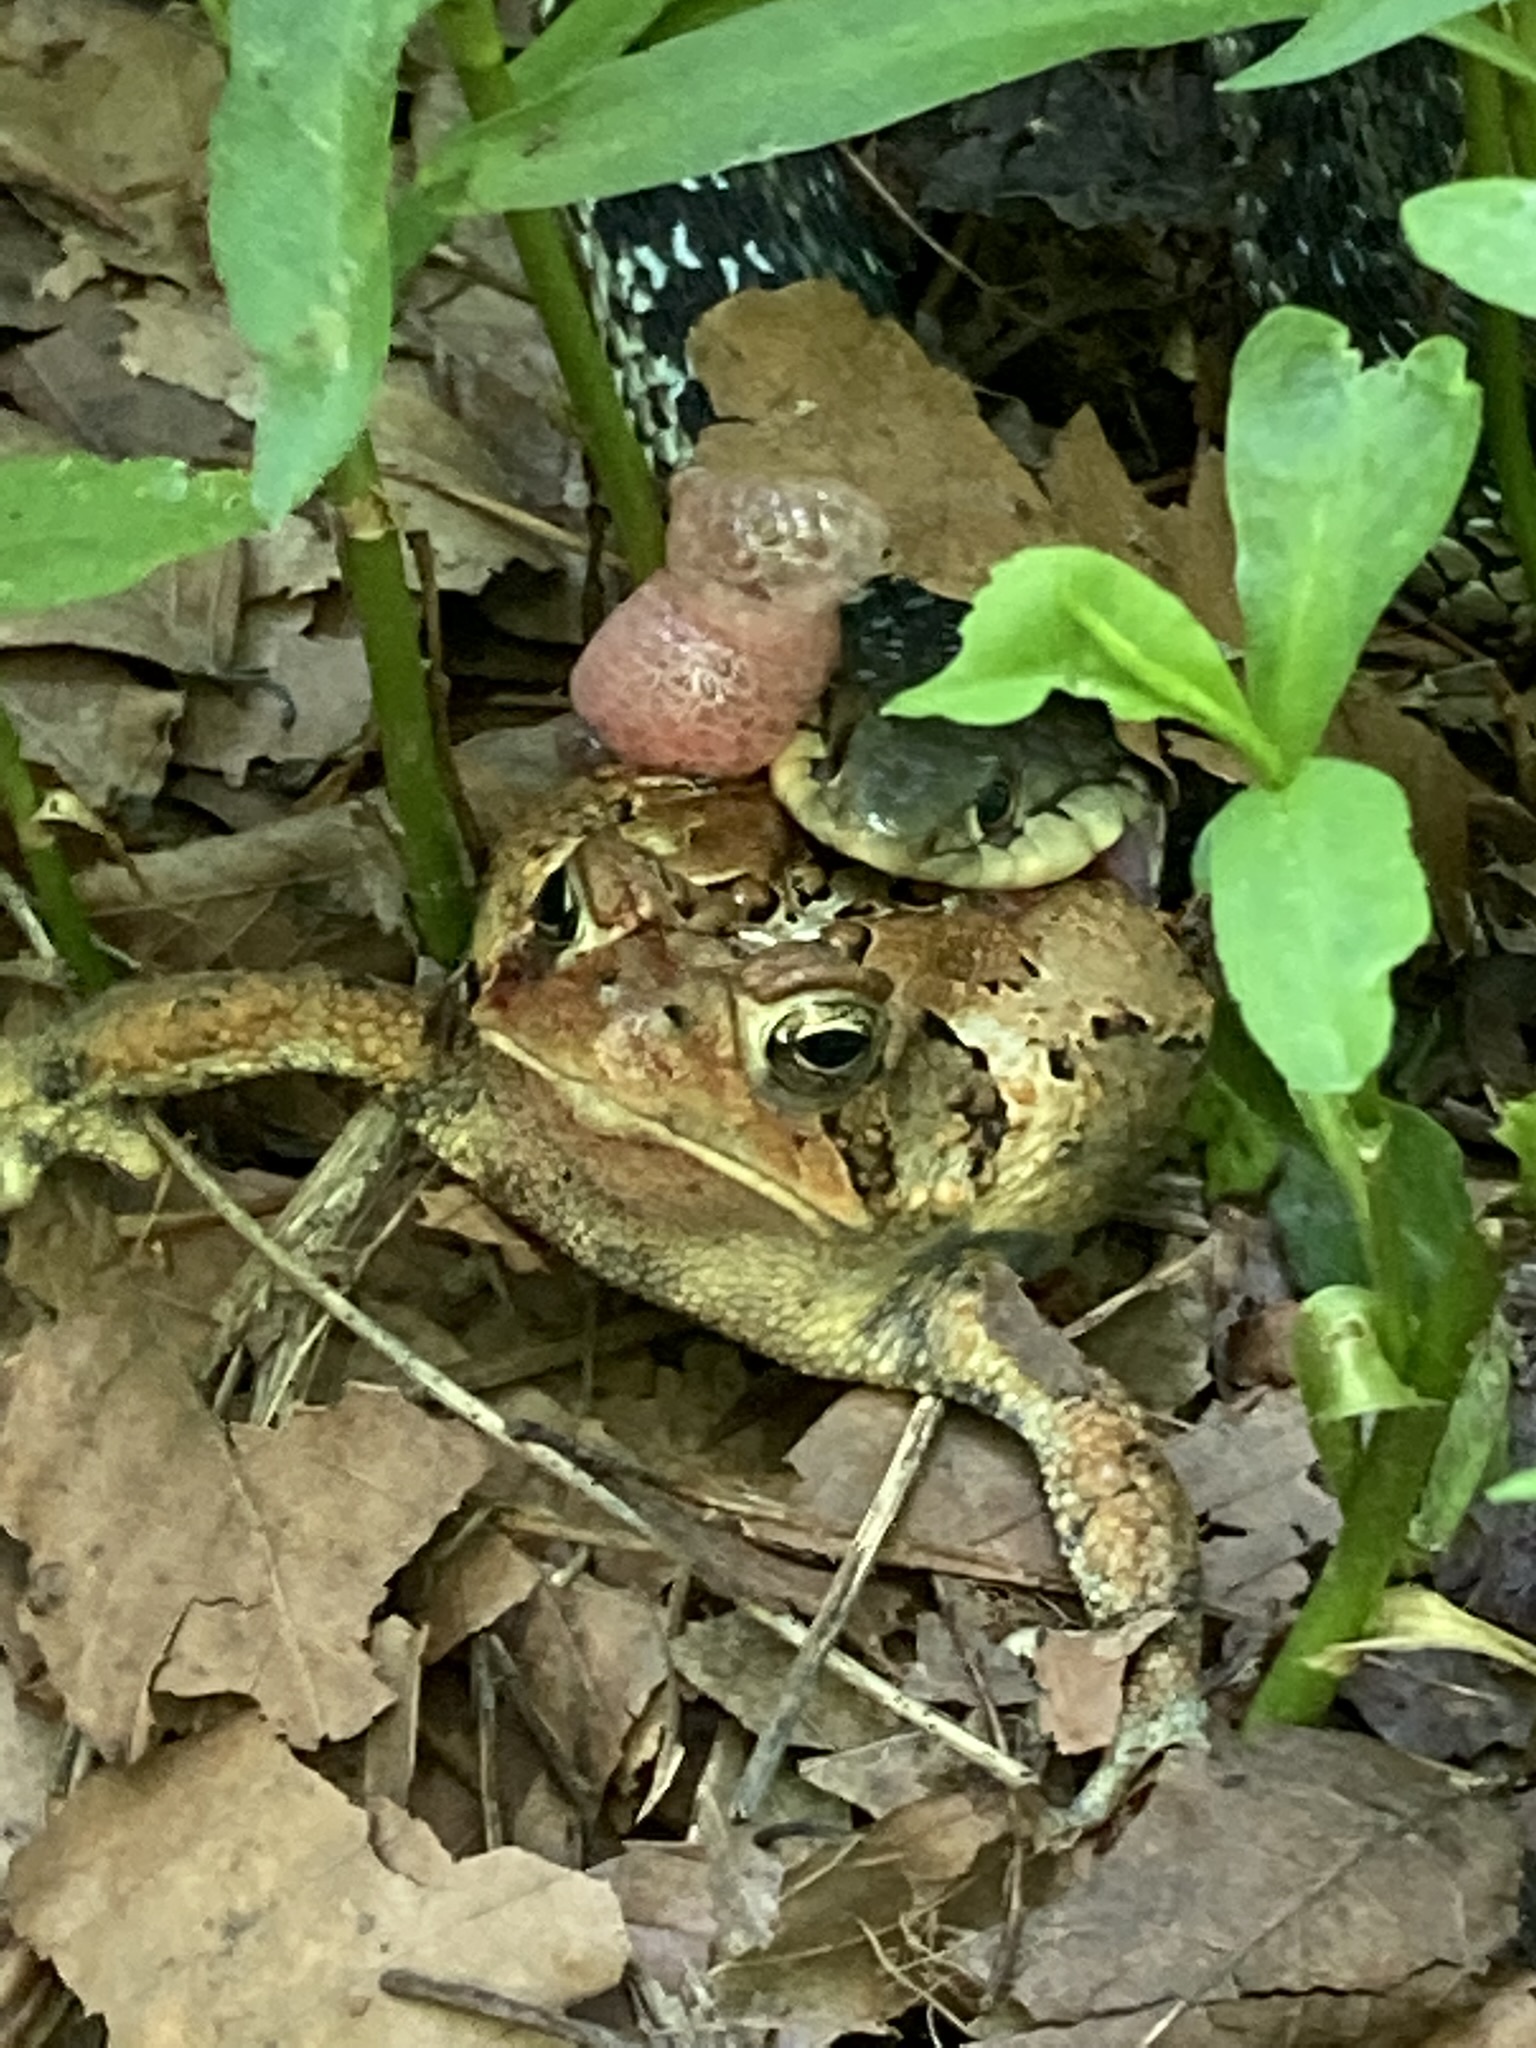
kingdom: Animalia
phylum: Chordata
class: Squamata
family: Colubridae
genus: Thamnophis
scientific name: Thamnophis sirtalis
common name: Common garter snake
